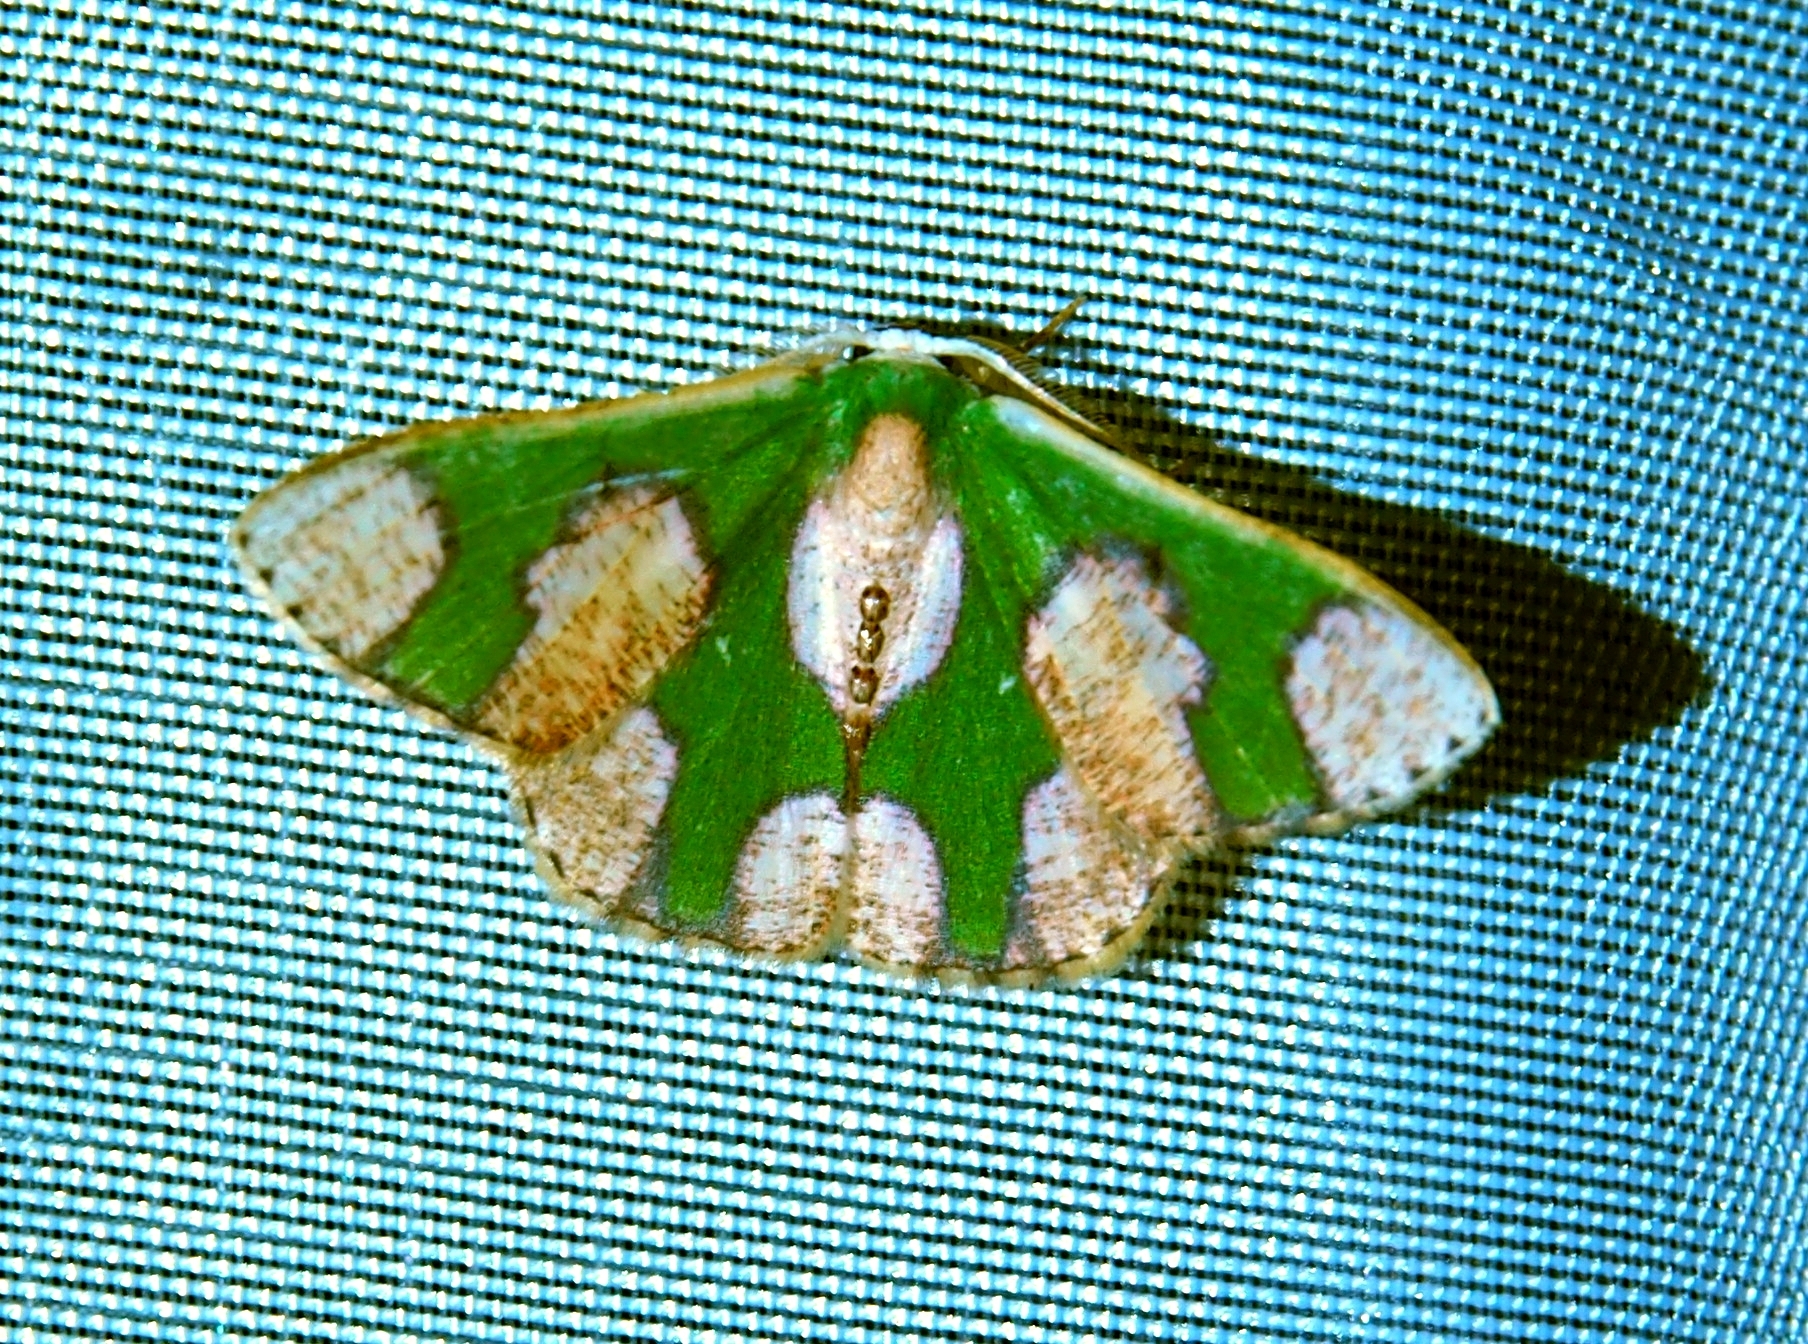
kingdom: Animalia
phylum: Arthropoda
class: Insecta
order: Lepidoptera
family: Geometridae
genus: Oospila
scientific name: Oospila albicoma
